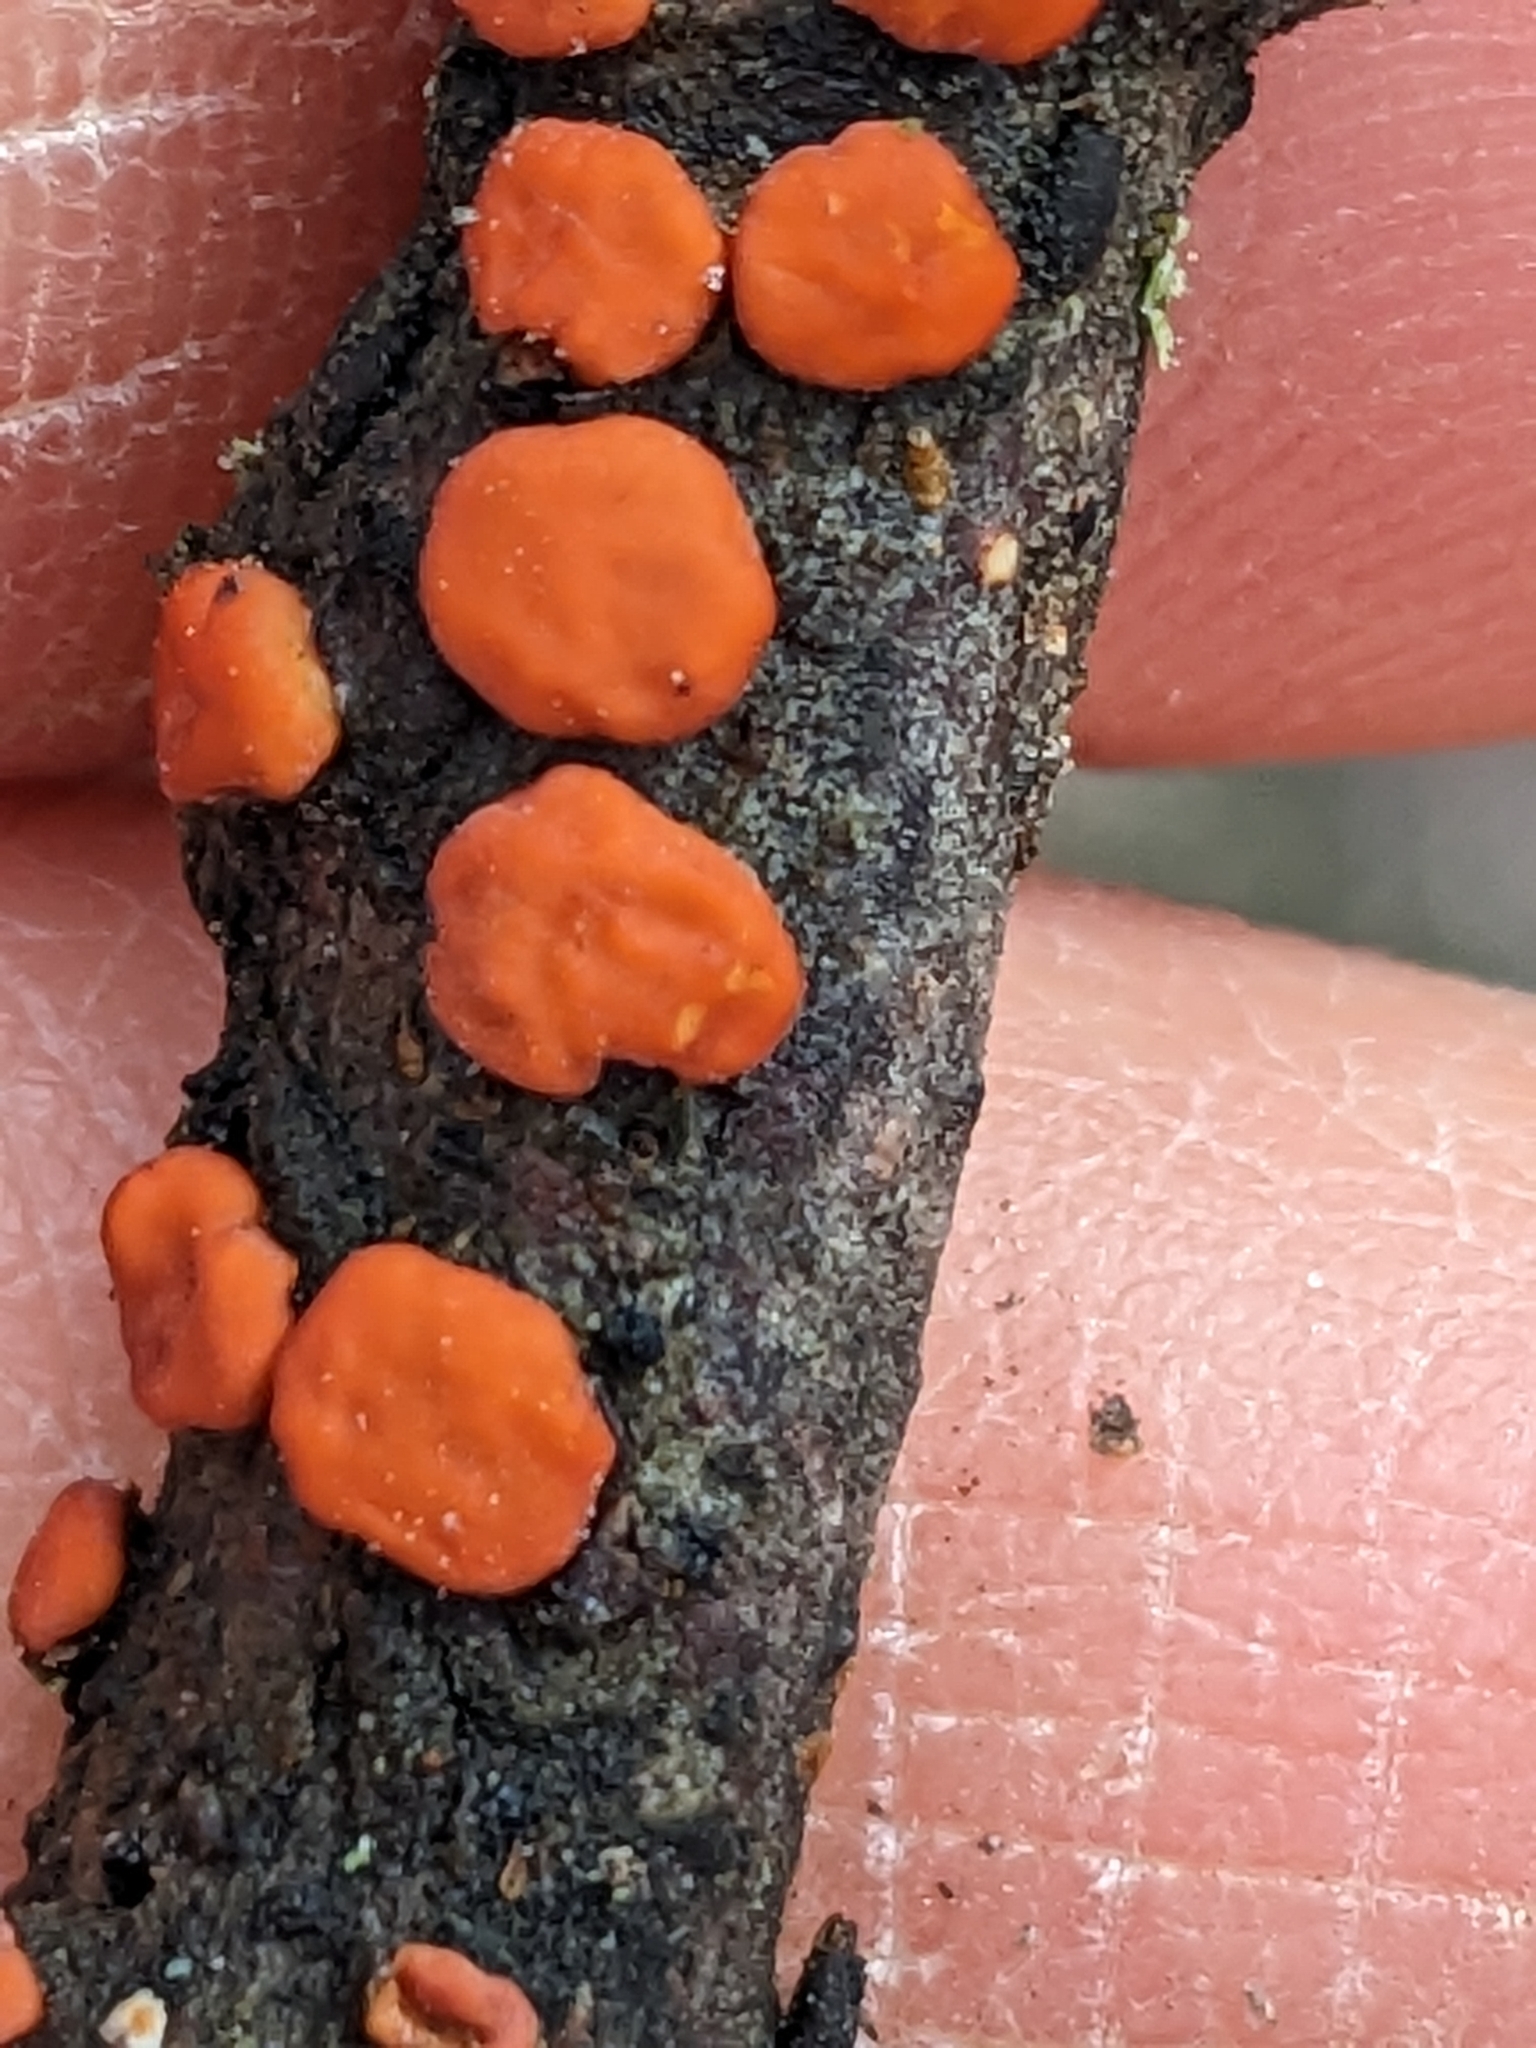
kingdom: Fungi
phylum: Basidiomycota
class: Agaricomycetes
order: Russulales
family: Peniophoraceae
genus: Peniophora
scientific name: Peniophora rufa
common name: Red tree brain fungus
